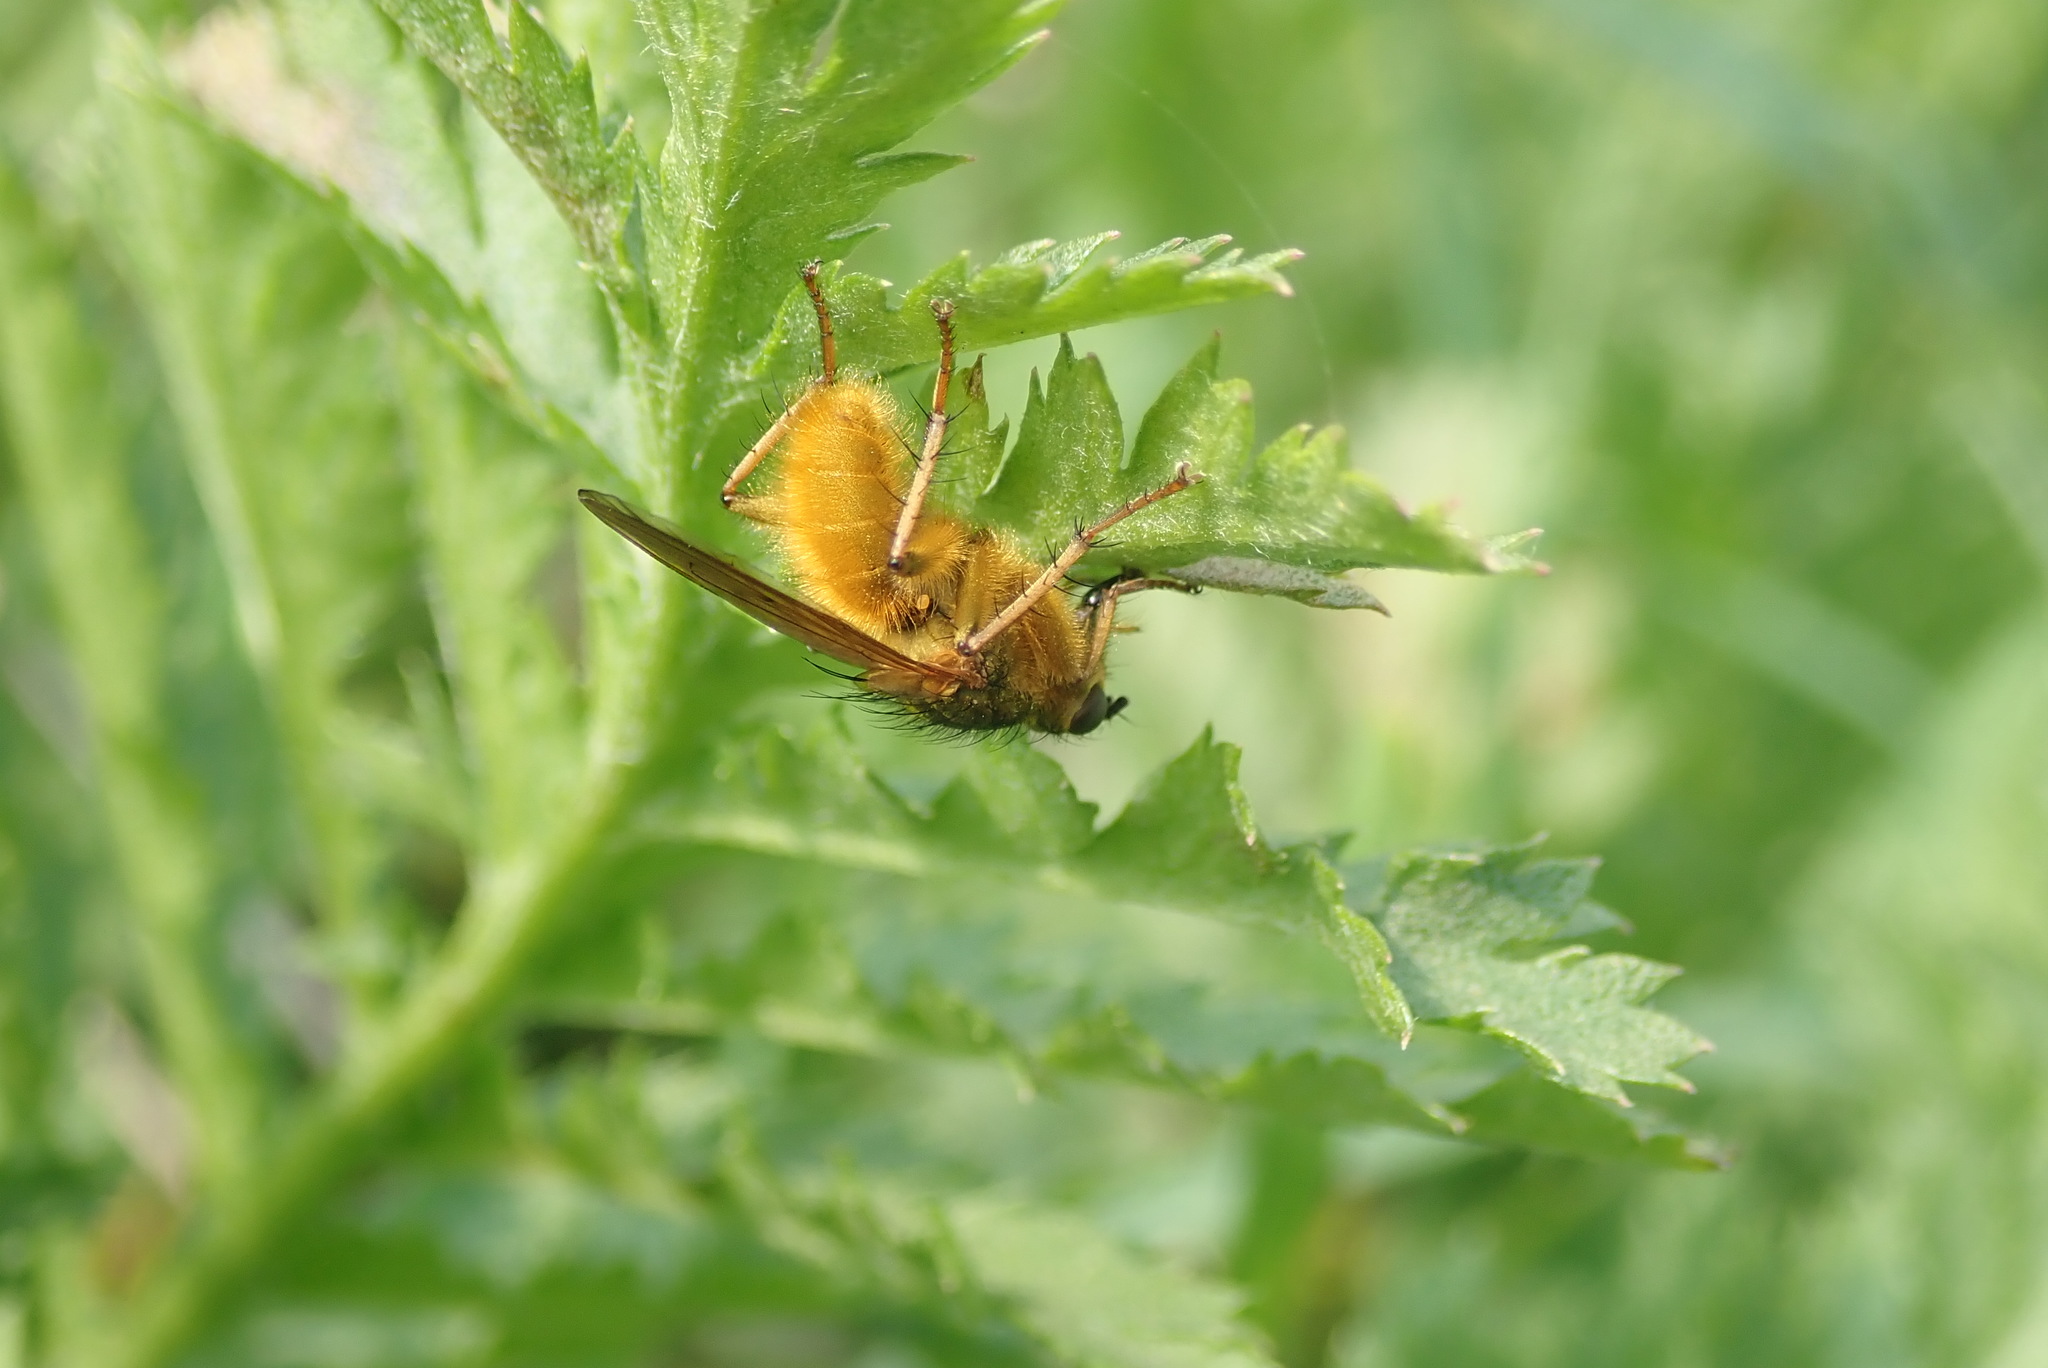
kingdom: Animalia
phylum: Arthropoda
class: Insecta
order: Diptera
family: Scathophagidae
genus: Scathophaga
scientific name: Scathophaga stercoraria
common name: Yellow dung fly
